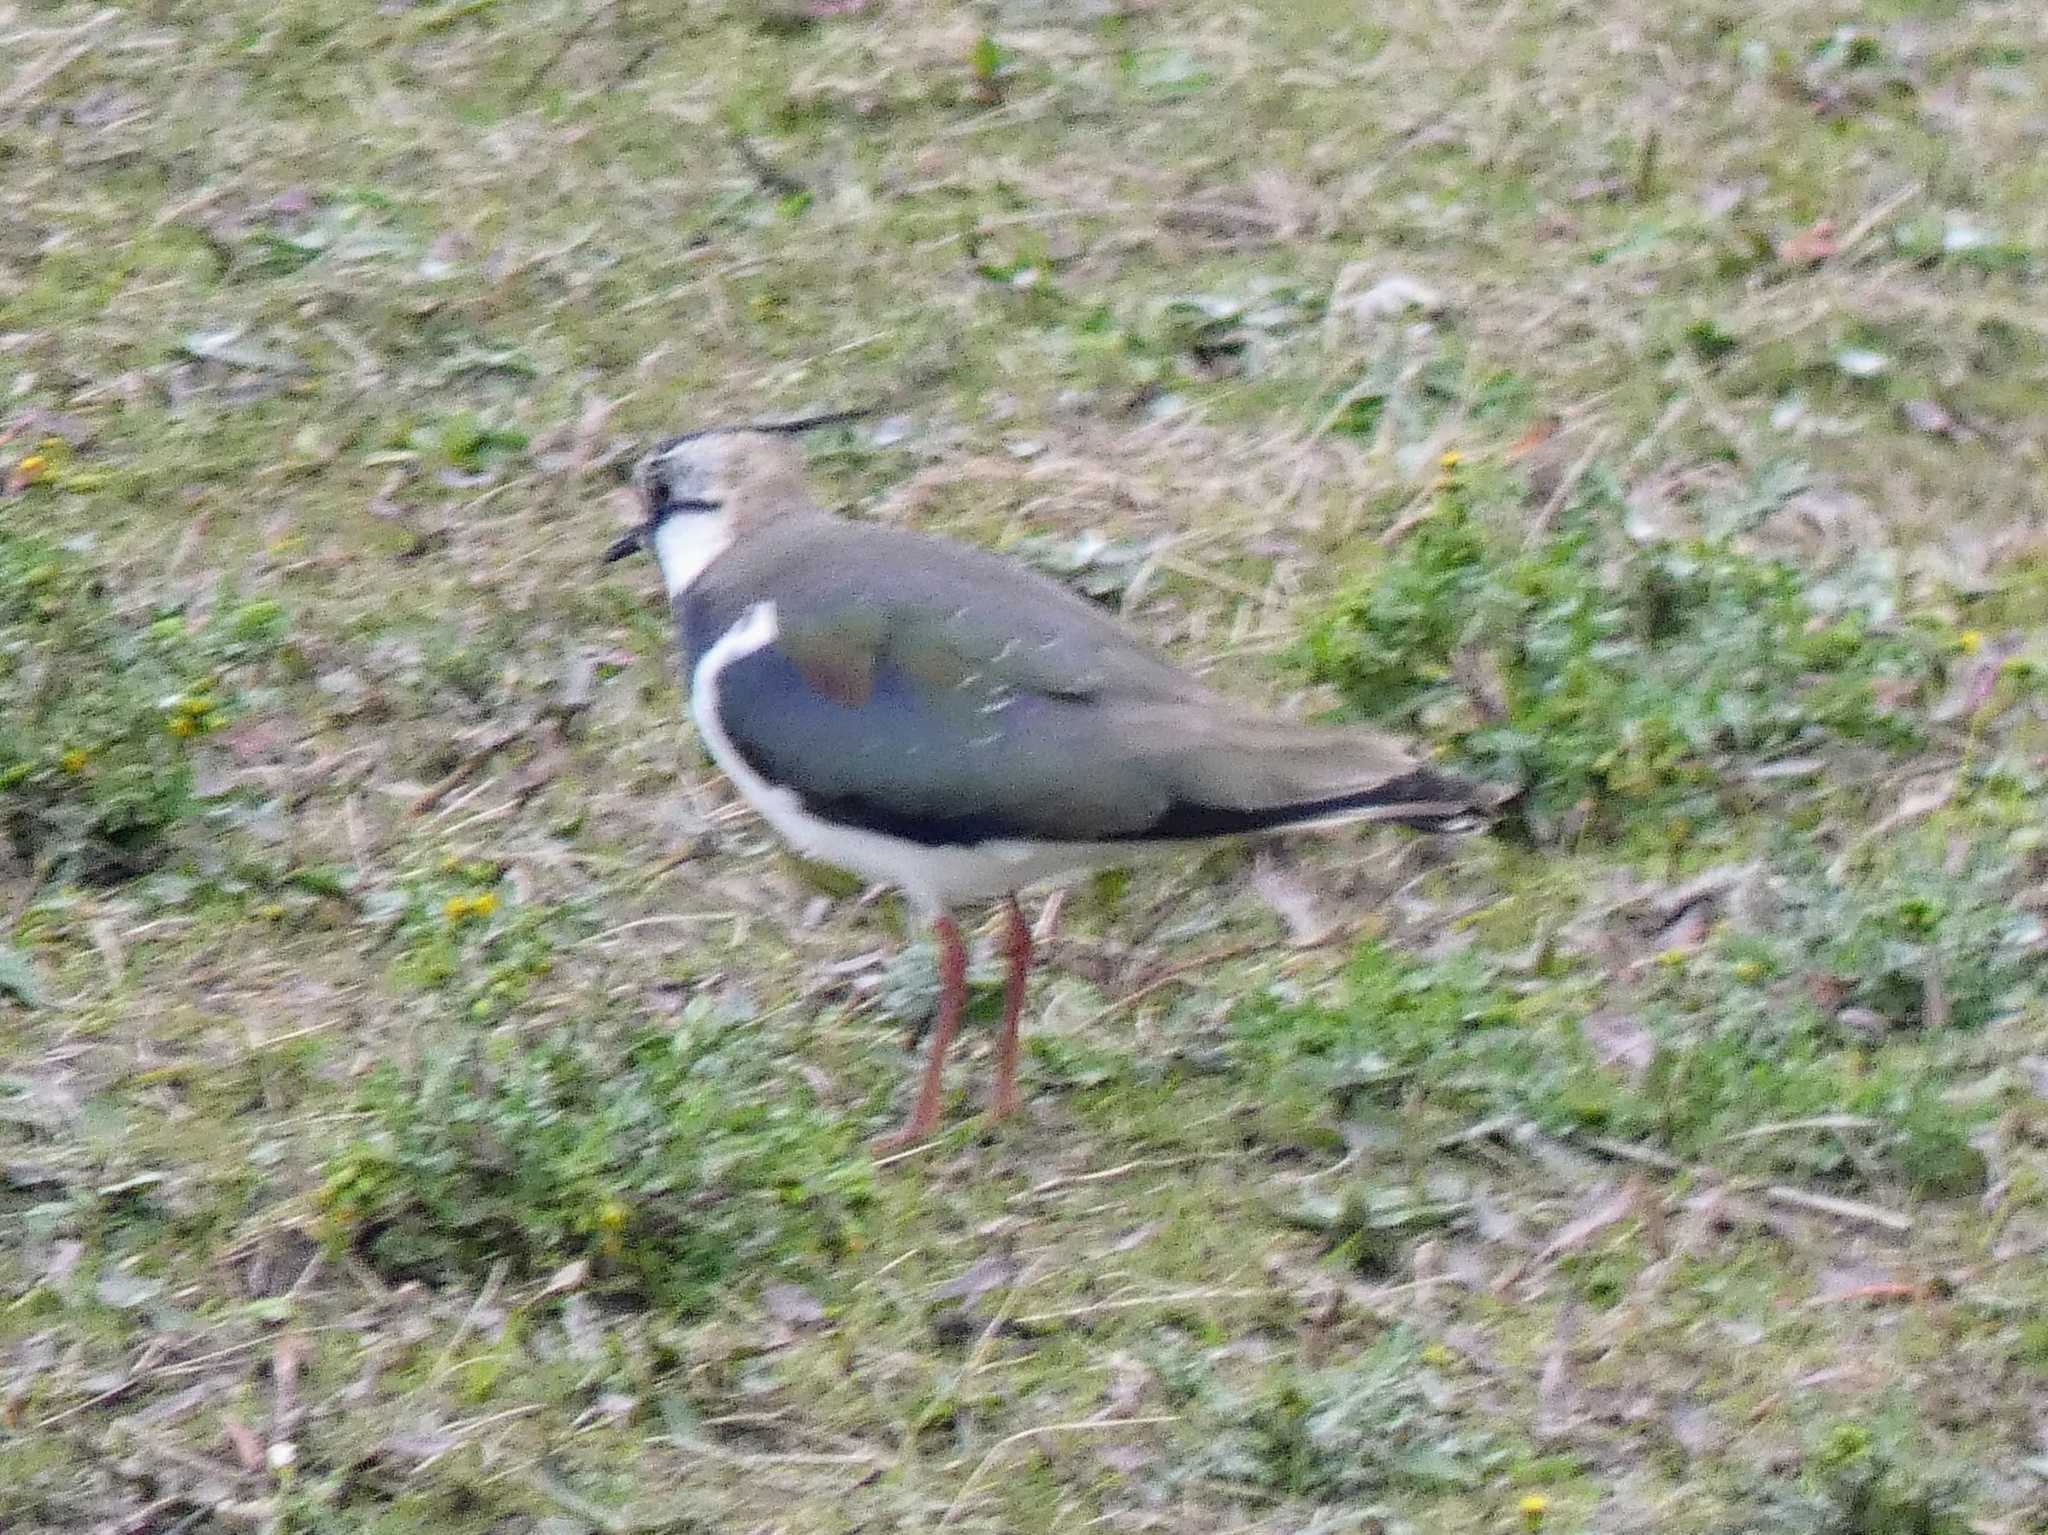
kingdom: Animalia
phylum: Chordata
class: Aves
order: Charadriiformes
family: Charadriidae
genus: Vanellus
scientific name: Vanellus vanellus
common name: Northern lapwing
